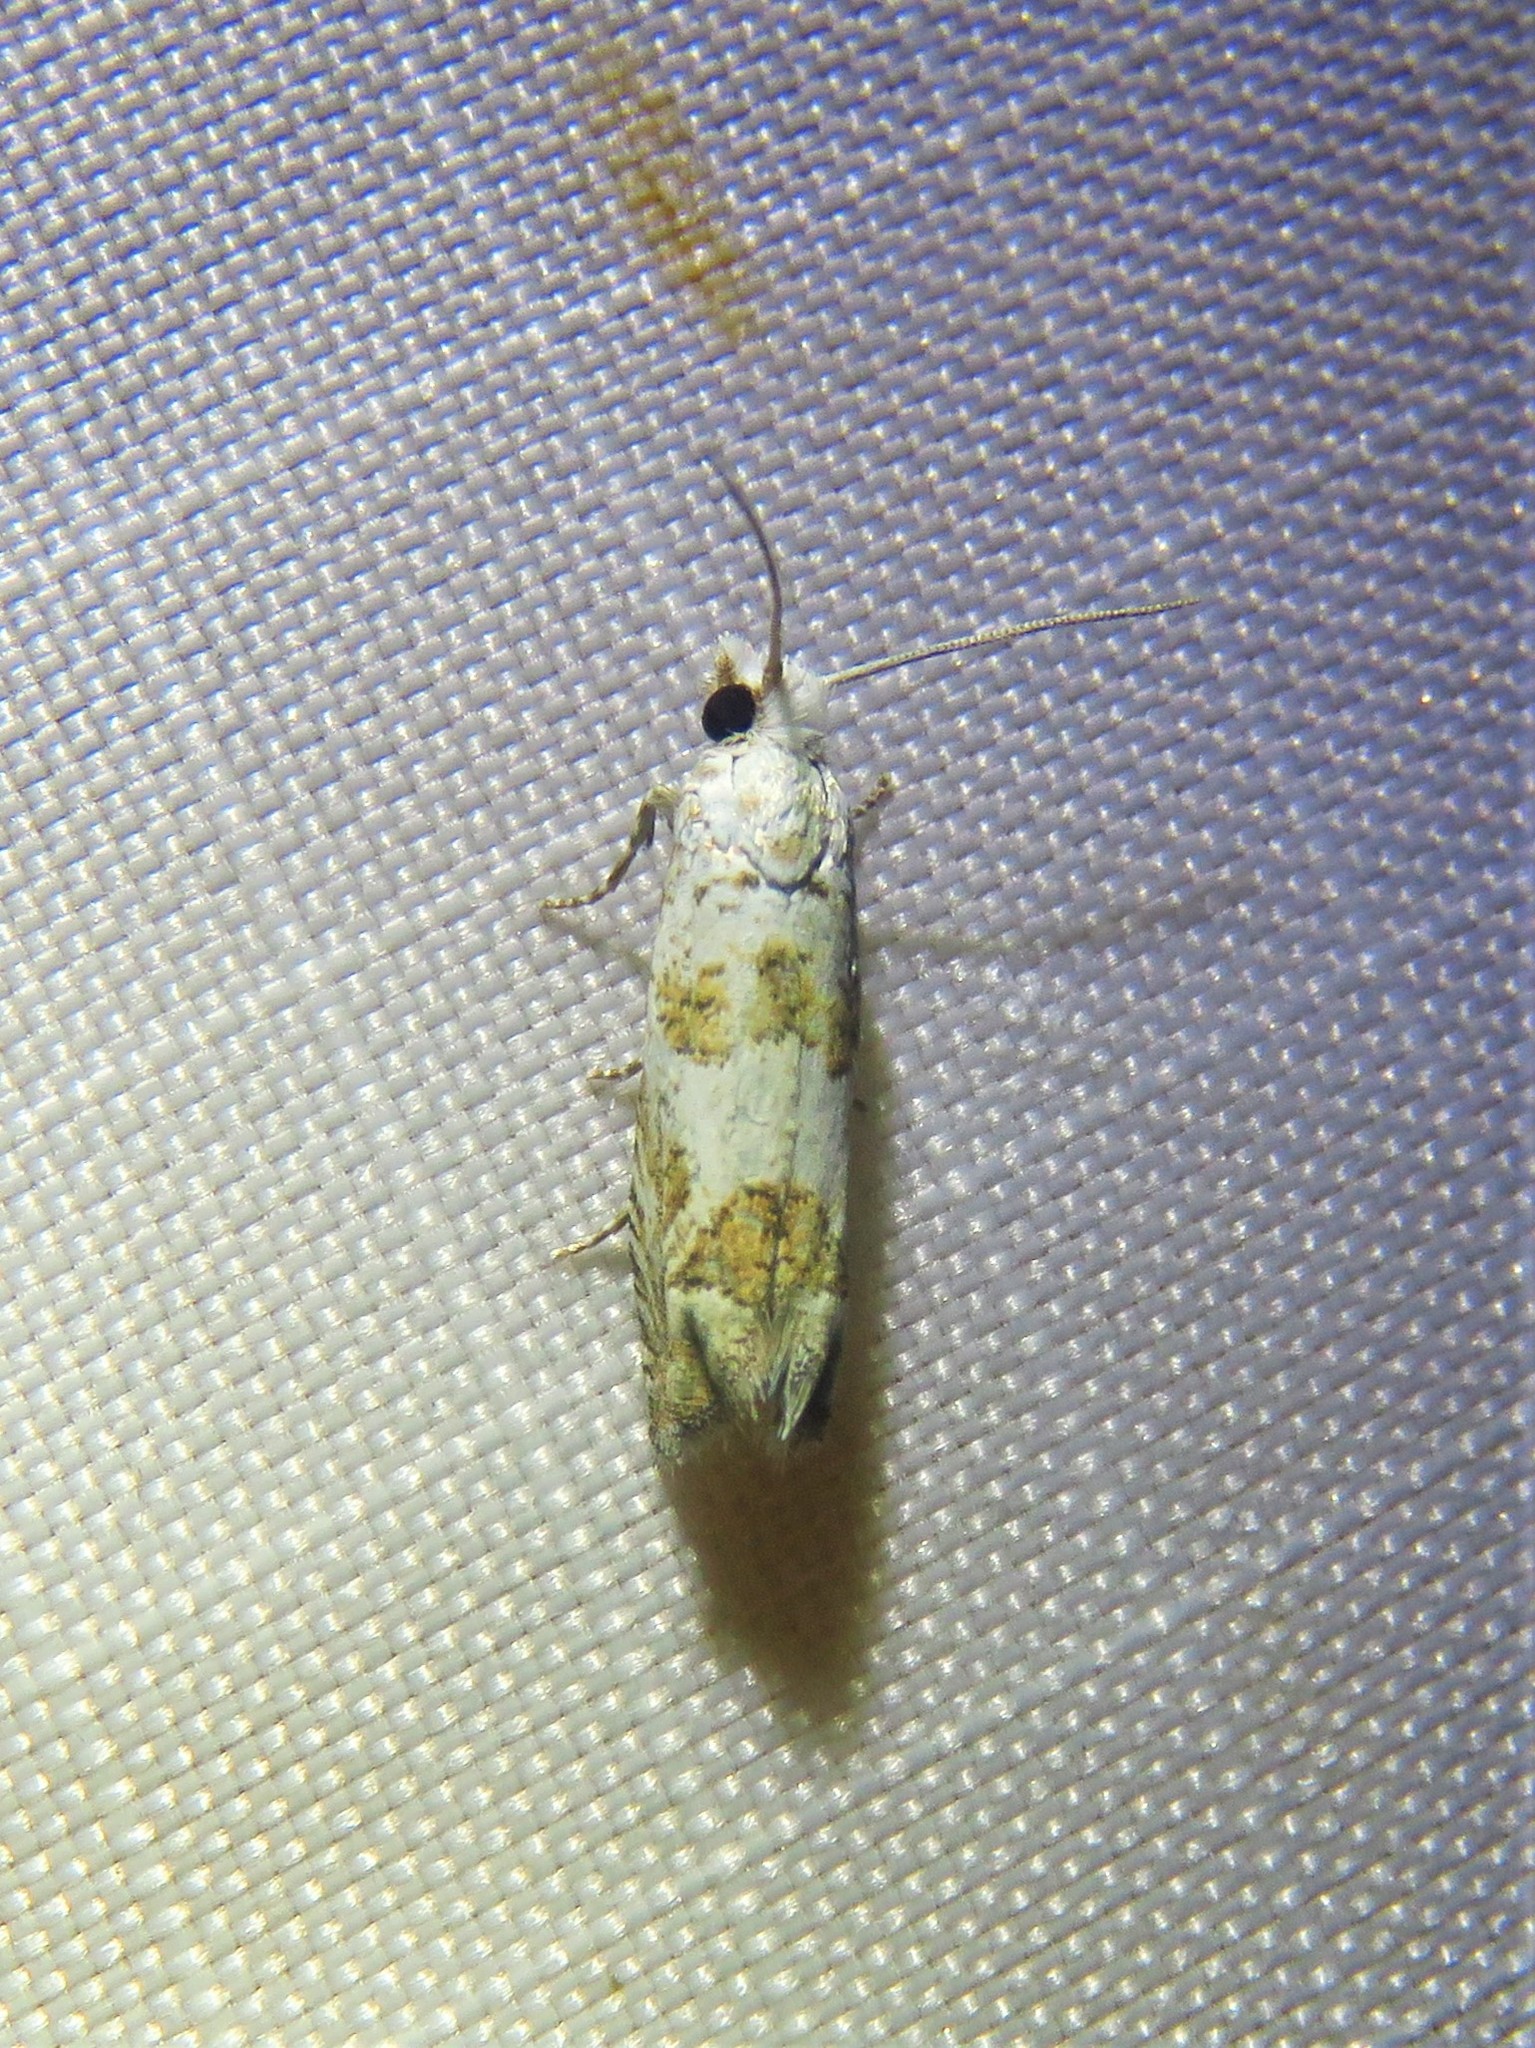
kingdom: Animalia
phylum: Arthropoda
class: Insecta
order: Lepidoptera
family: Tortricidae
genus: Pelochrista
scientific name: Pelochrista notialis
